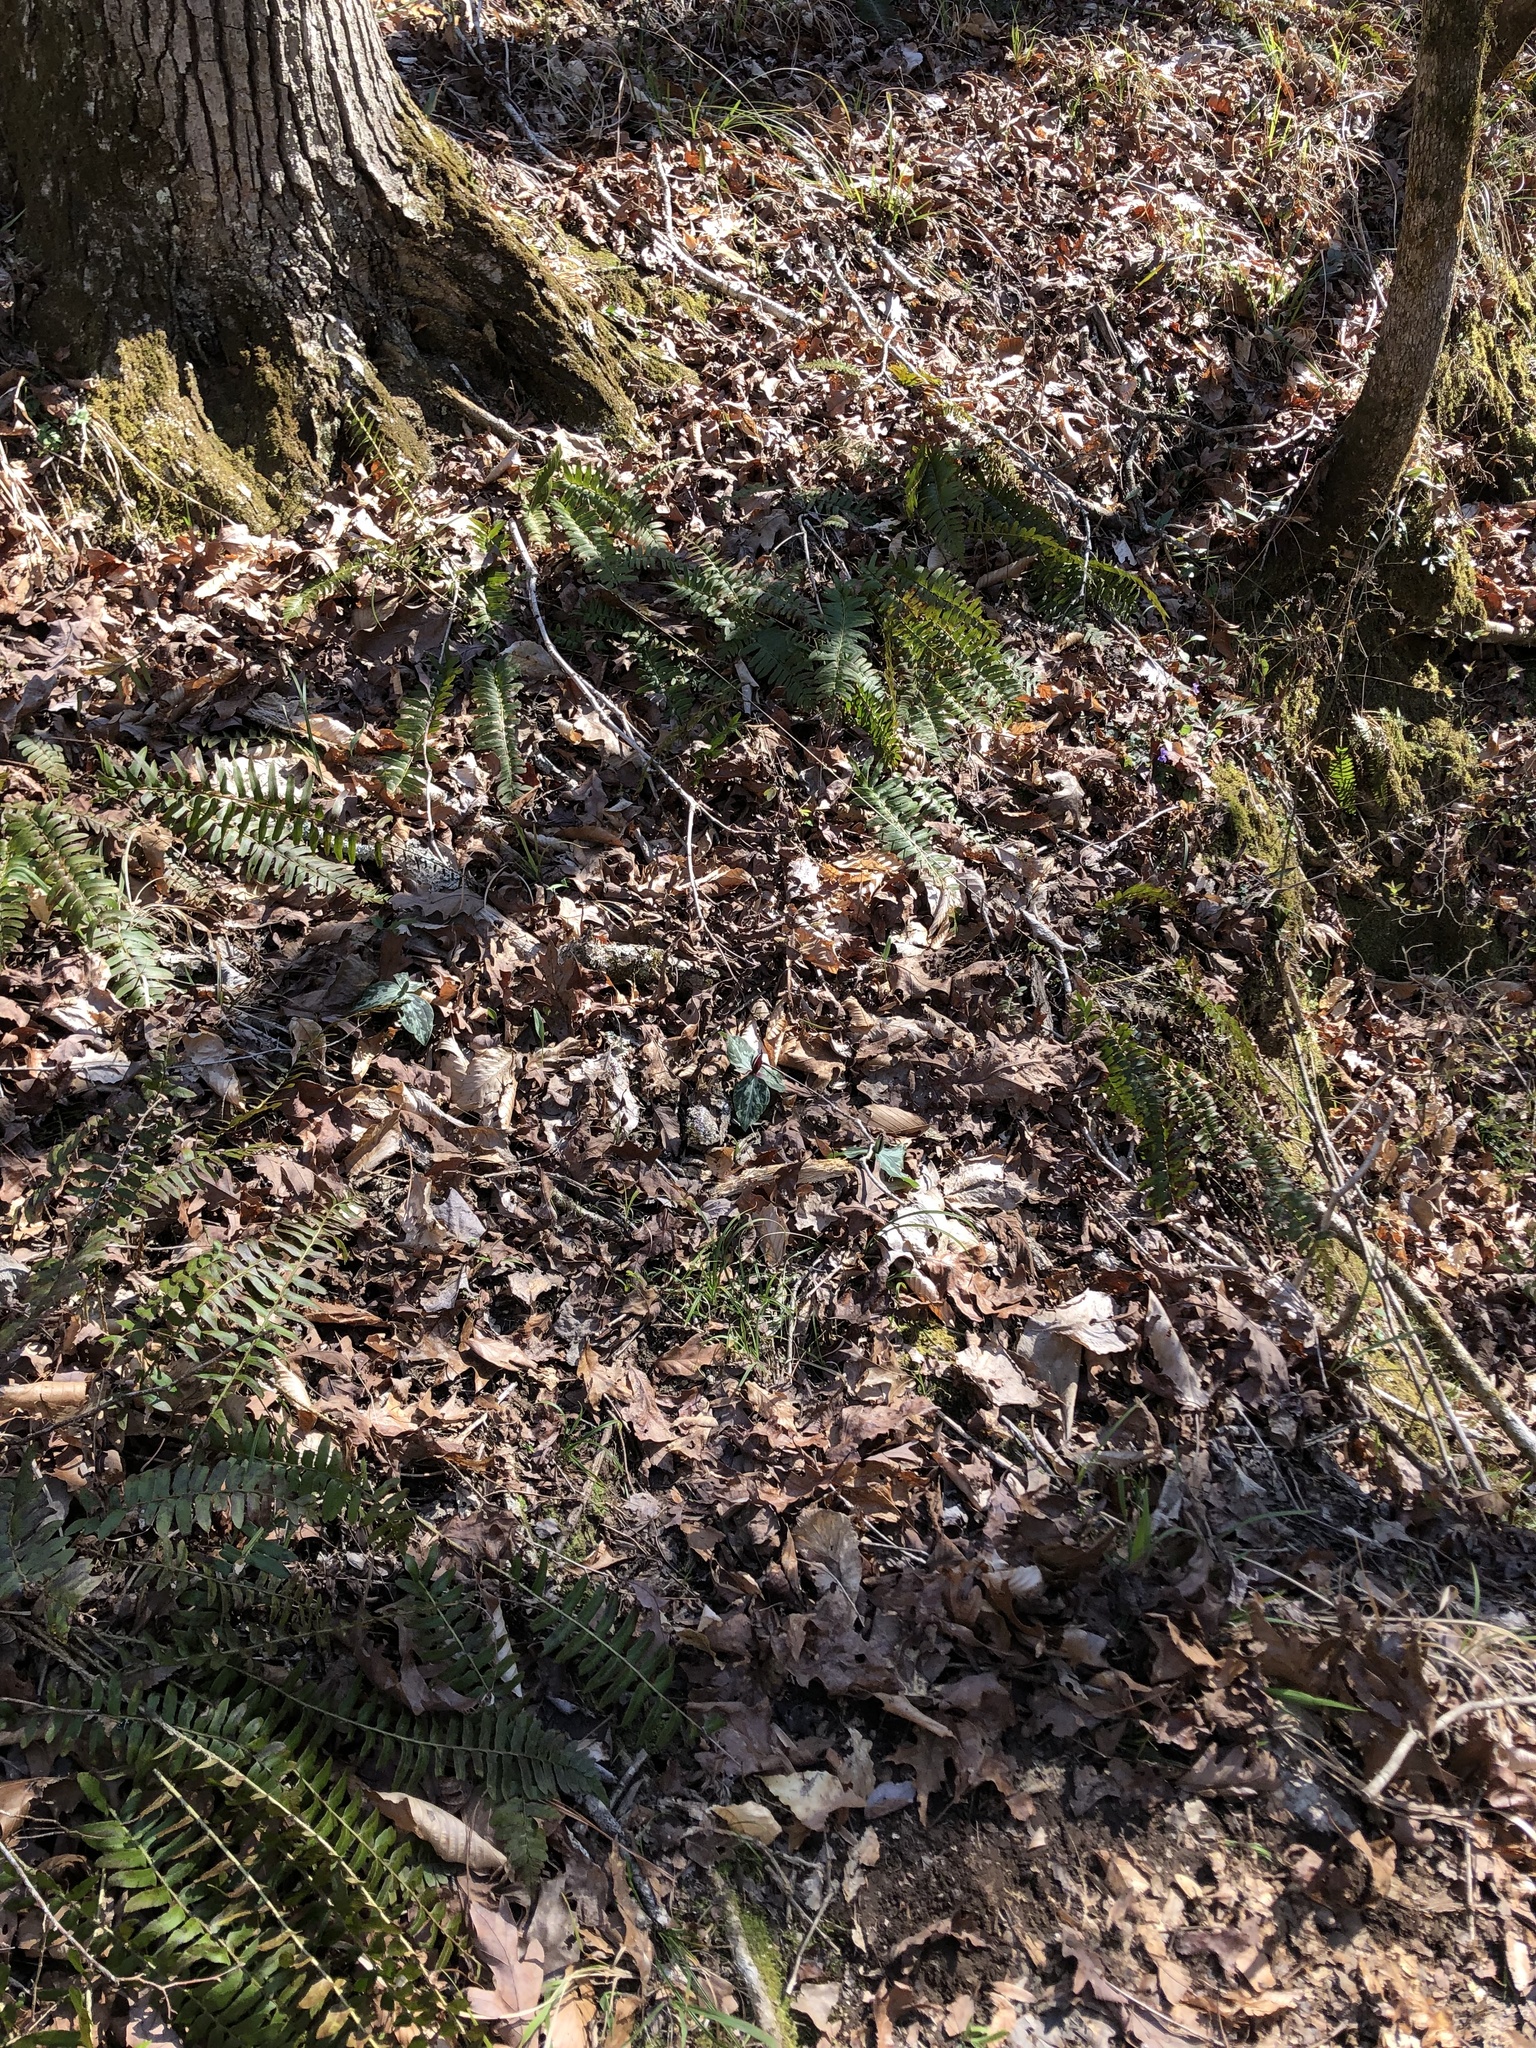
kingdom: Plantae
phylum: Tracheophyta
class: Liliopsida
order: Liliales
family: Melanthiaceae
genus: Trillium
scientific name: Trillium foetidissimum
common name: Mississippi river trillium
